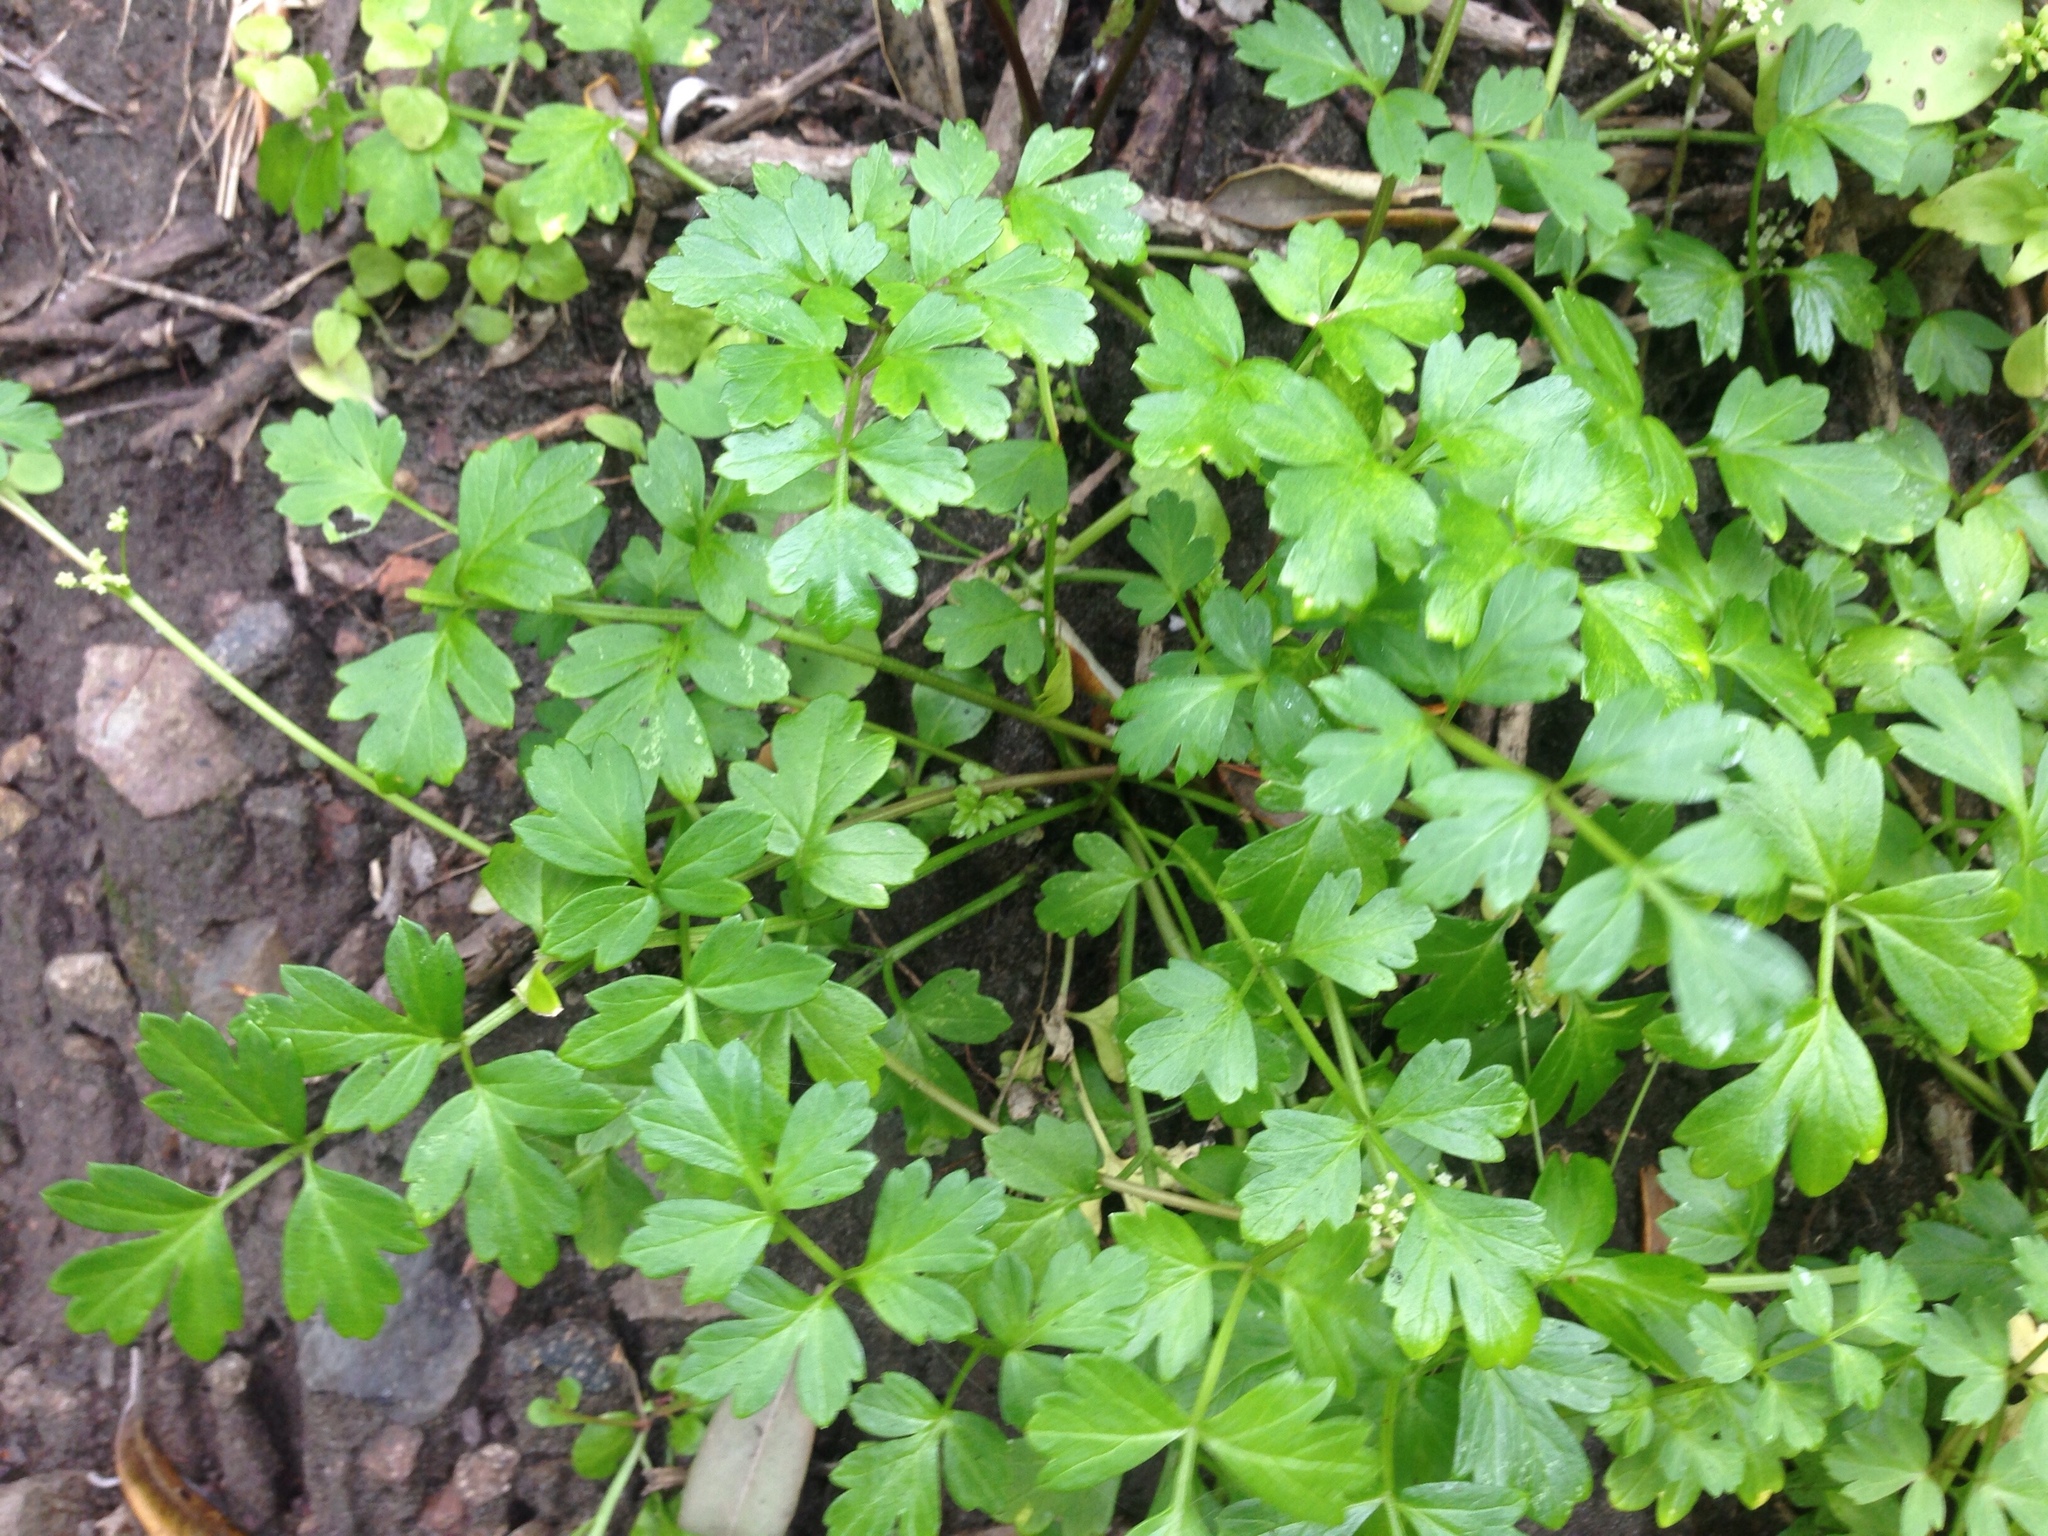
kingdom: Plantae
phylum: Tracheophyta
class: Magnoliopsida
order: Apiales
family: Apiaceae
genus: Apium
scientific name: Apium prostratum
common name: Prostrate marshwort
